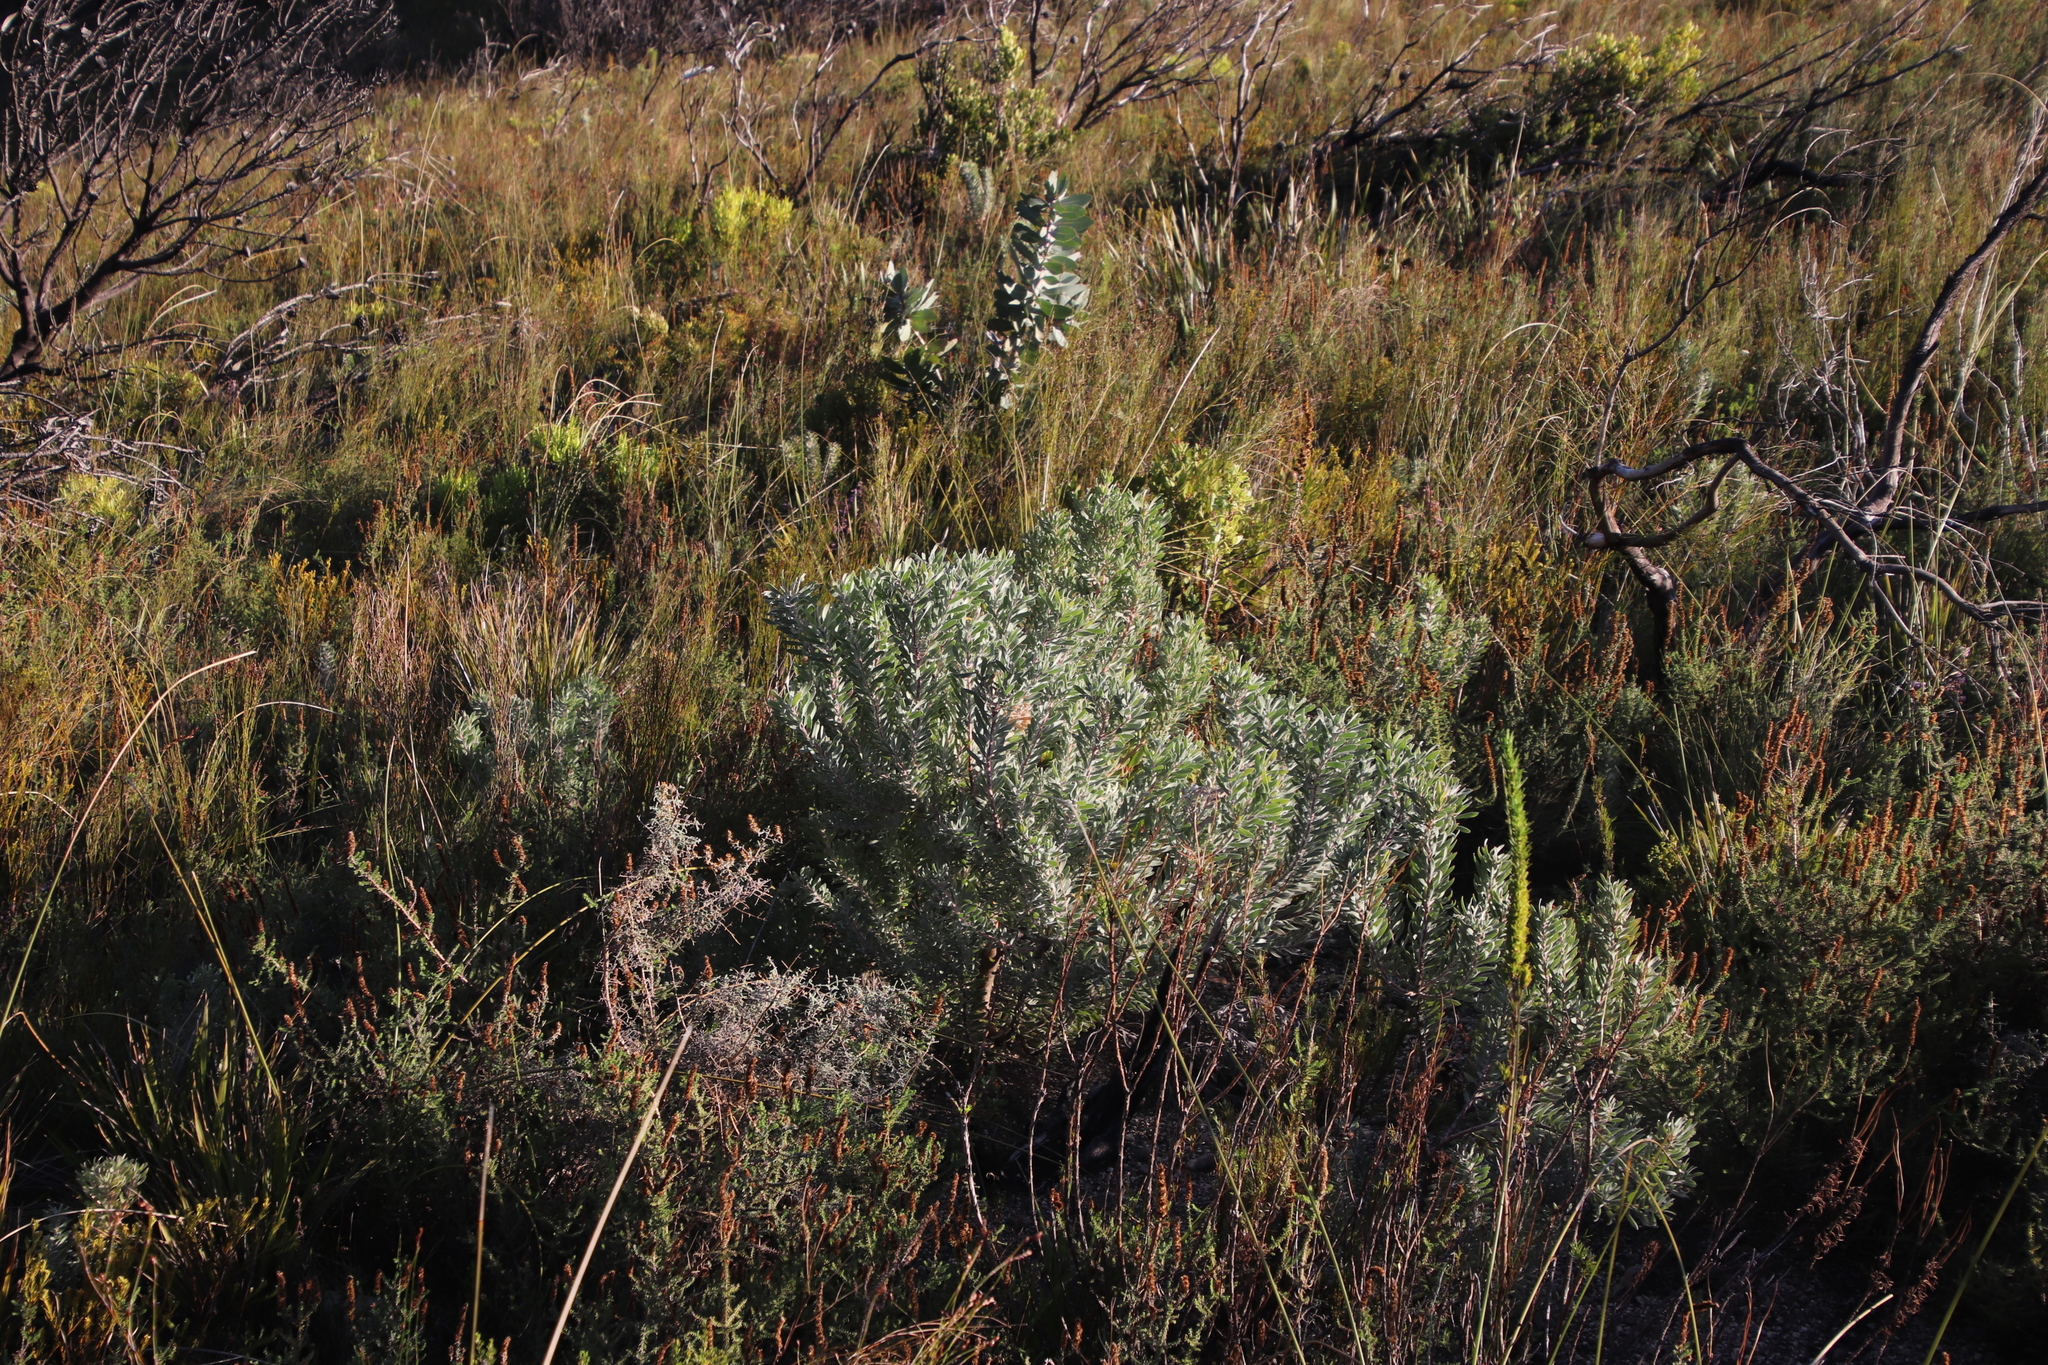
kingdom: Plantae
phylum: Tracheophyta
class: Magnoliopsida
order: Proteales
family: Proteaceae
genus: Leucadendron
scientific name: Leucadendron rubrum
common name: Spinning top
